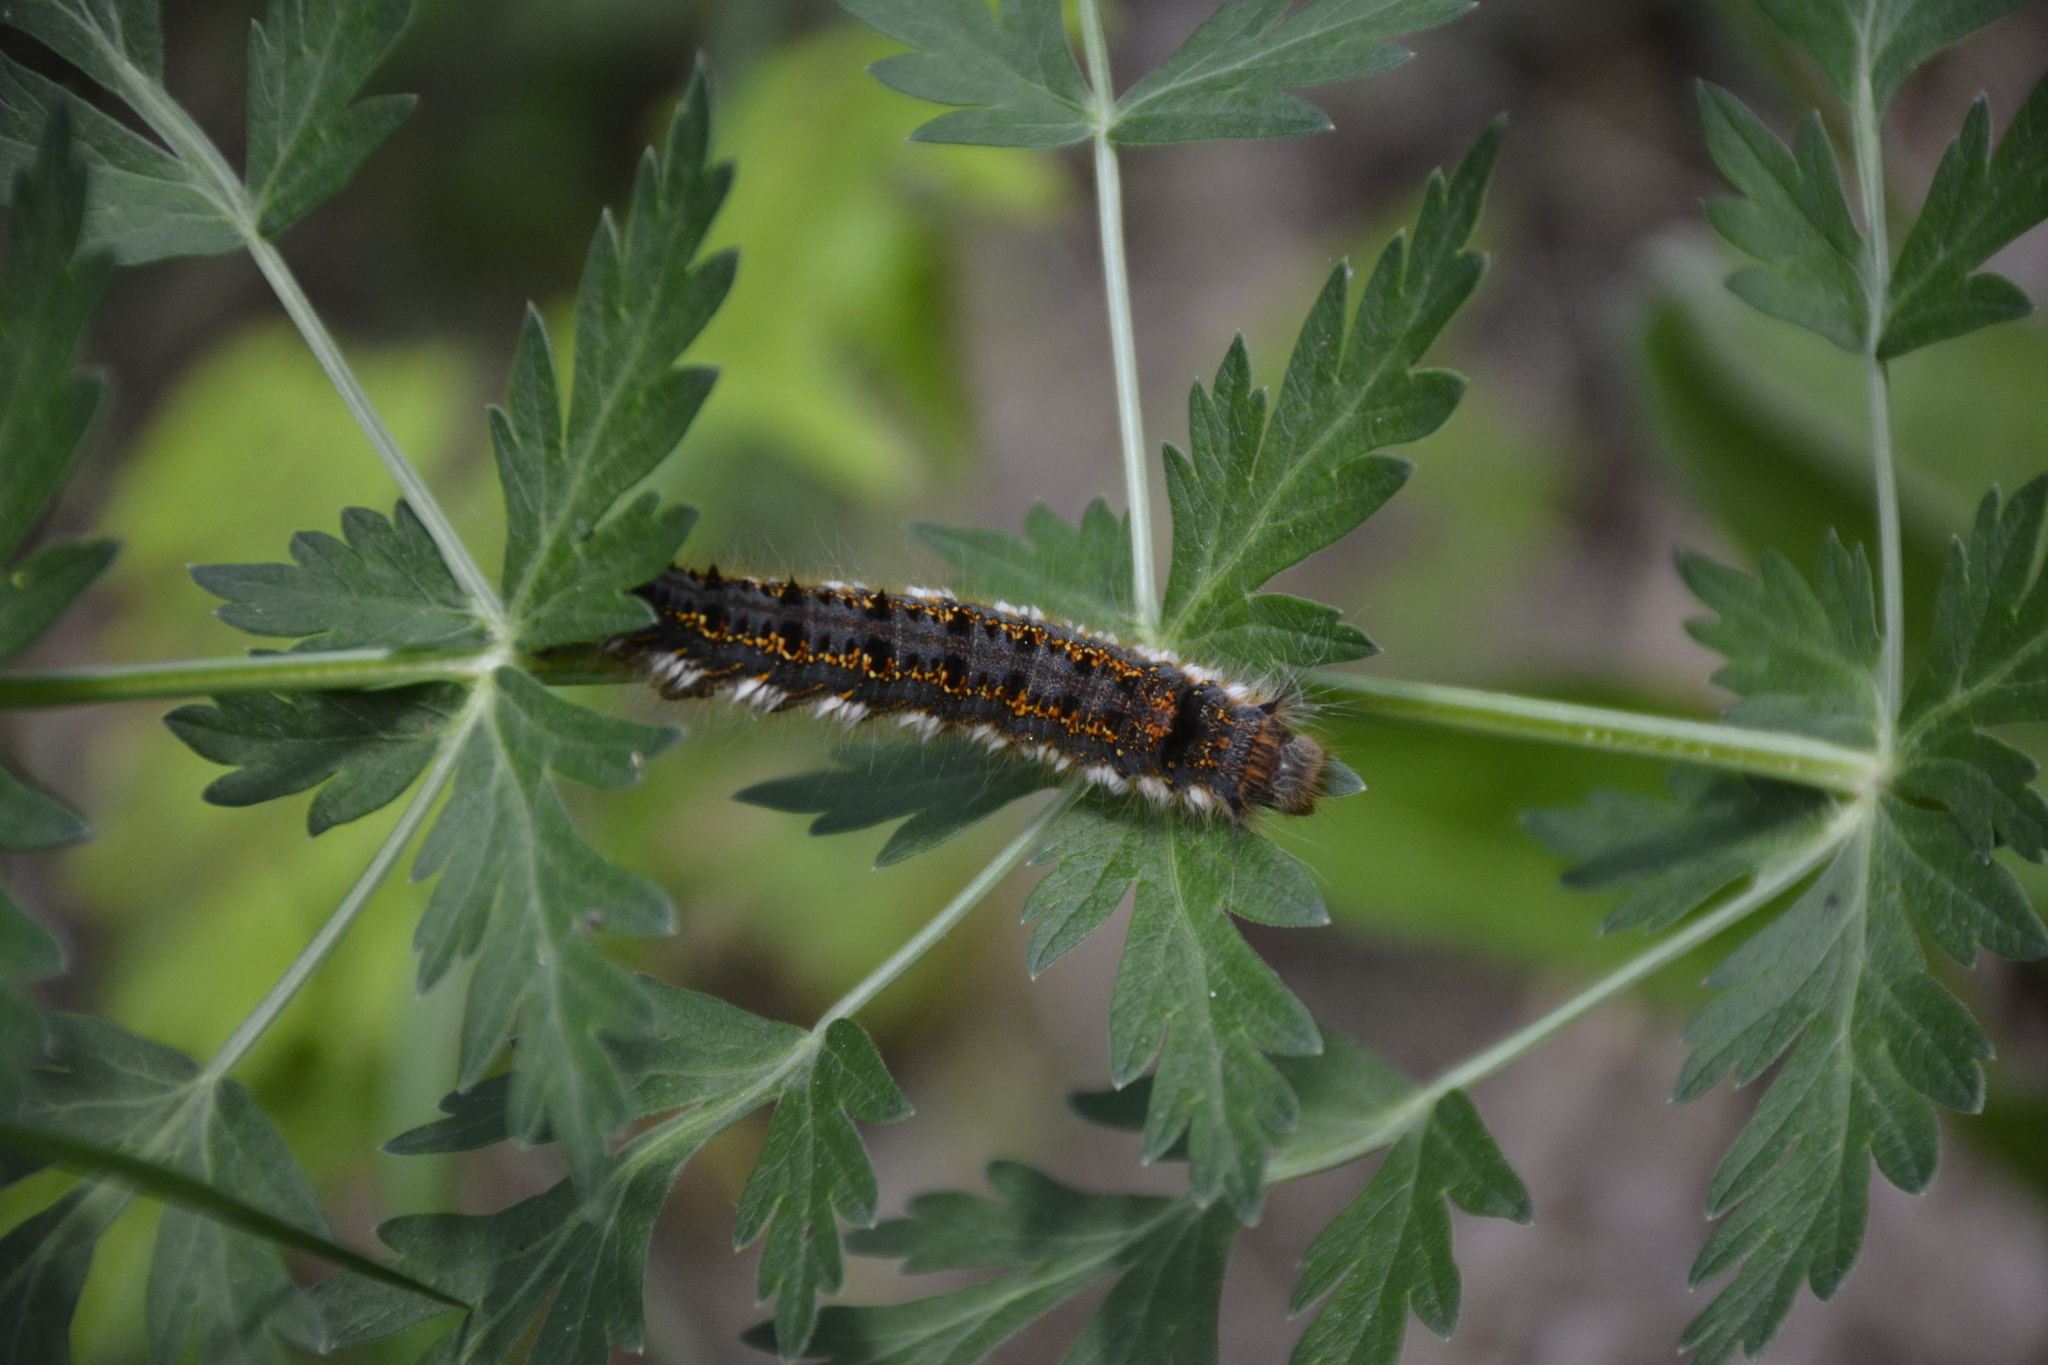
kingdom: Animalia
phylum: Arthropoda
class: Insecta
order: Lepidoptera
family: Lasiocampidae
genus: Euthrix
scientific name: Euthrix potatoria
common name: Drinker
